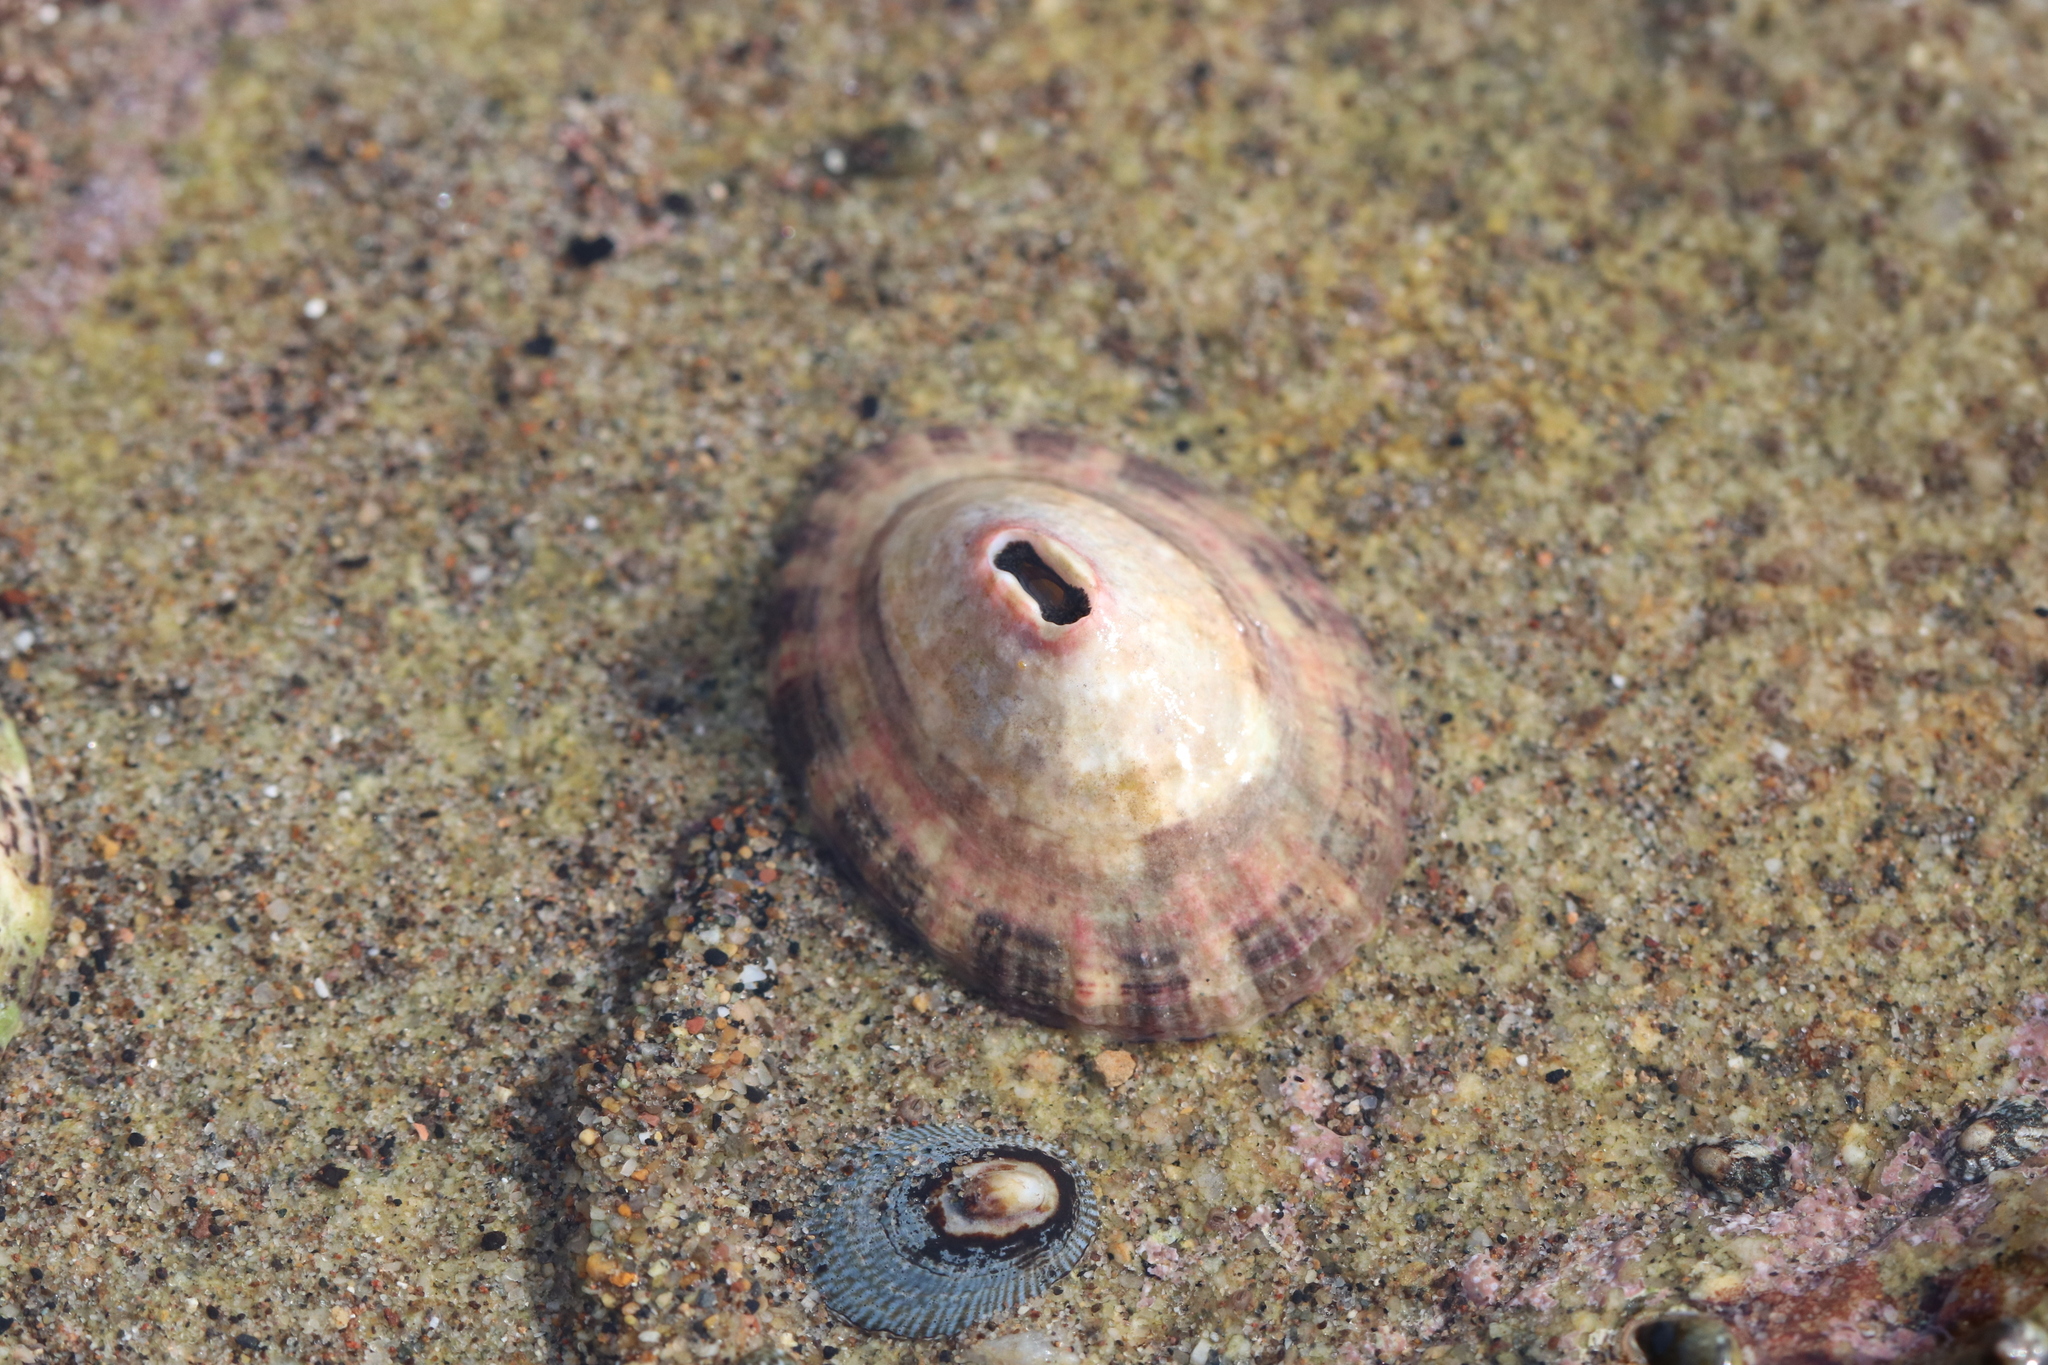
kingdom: Animalia
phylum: Mollusca
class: Gastropoda
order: Lepetellida
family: Fissurellidae
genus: Fissurella
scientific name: Fissurella volcano
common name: Volcano keyhole limpet
